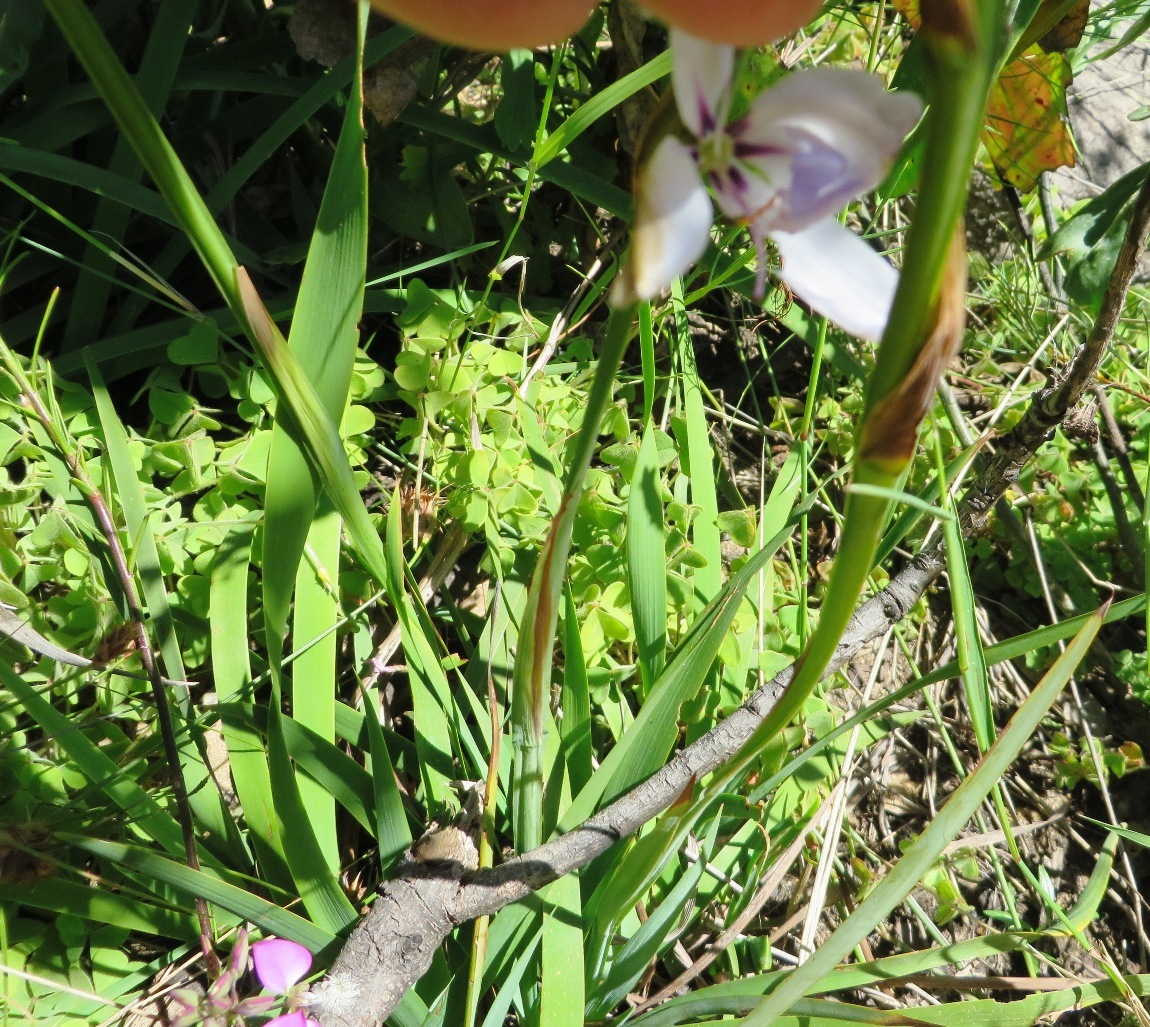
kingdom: Plantae
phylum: Tracheophyta
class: Liliopsida
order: Asparagales
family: Iridaceae
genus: Aristea
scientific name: Aristea spiralis
